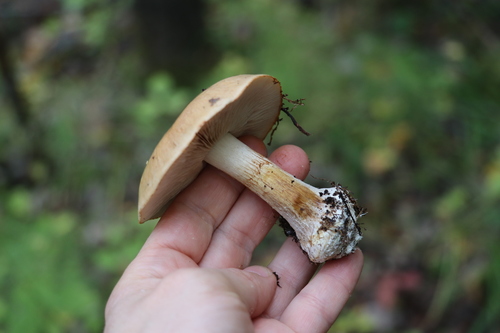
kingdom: Fungi
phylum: Basidiomycota
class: Agaricomycetes
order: Agaricales
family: Cortinariaceae
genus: Thaxterogaster
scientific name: Thaxterogaster talus
